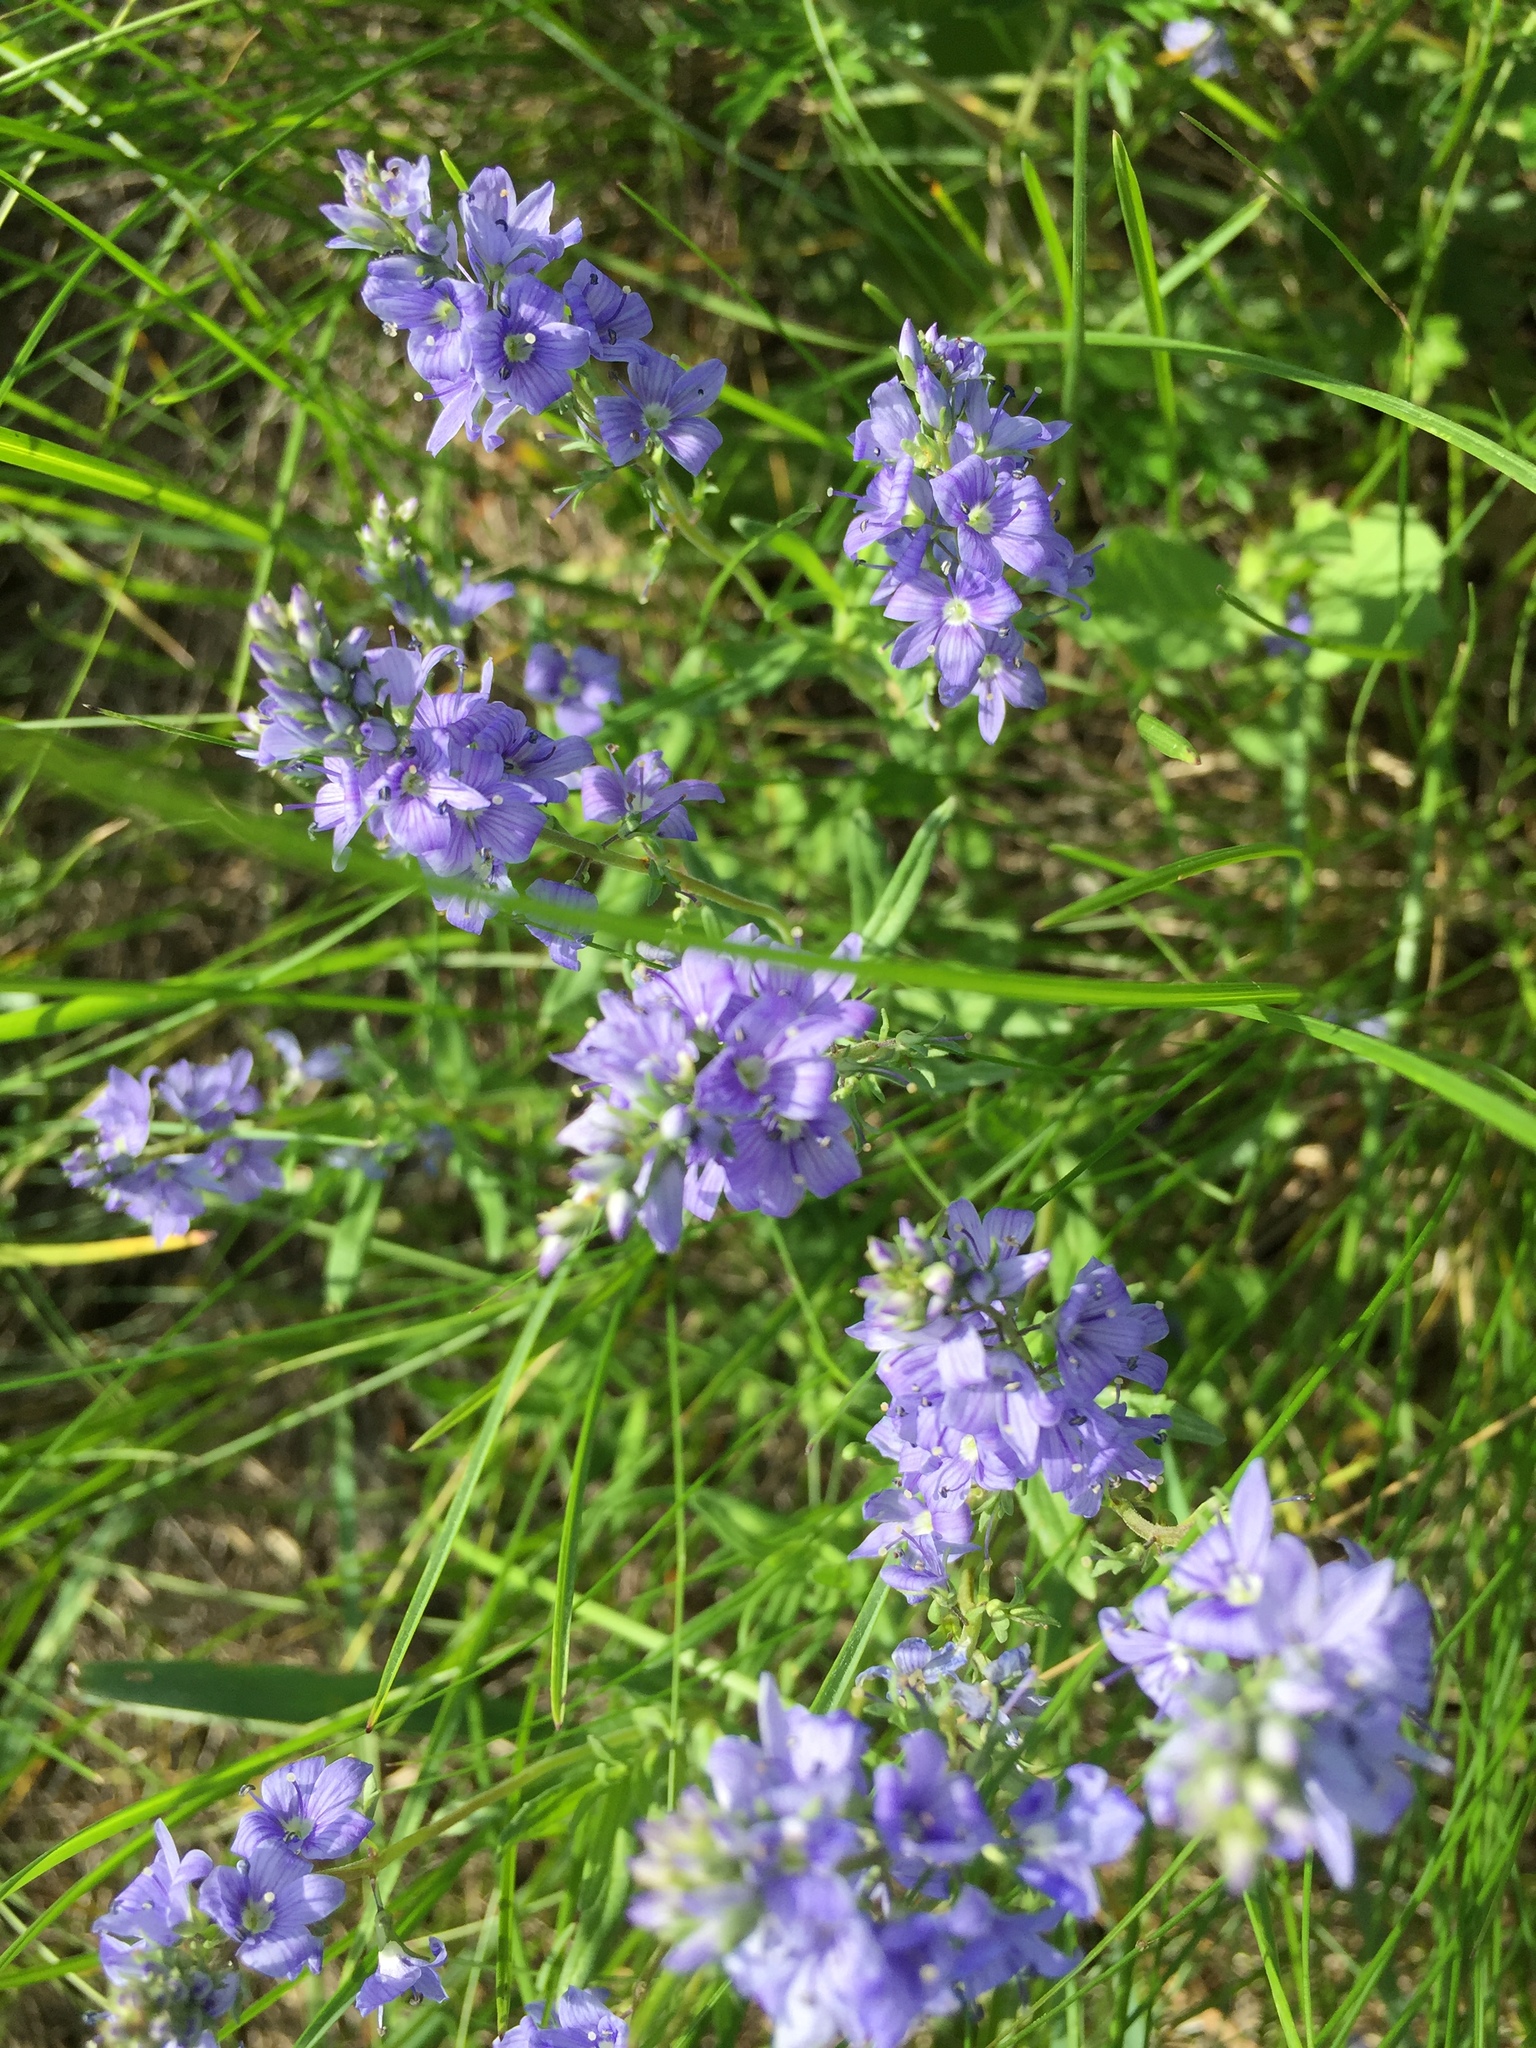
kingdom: Plantae
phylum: Tracheophyta
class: Magnoliopsida
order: Lamiales
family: Plantaginaceae
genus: Veronica
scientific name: Veronica austriaca
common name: Large speedwell
